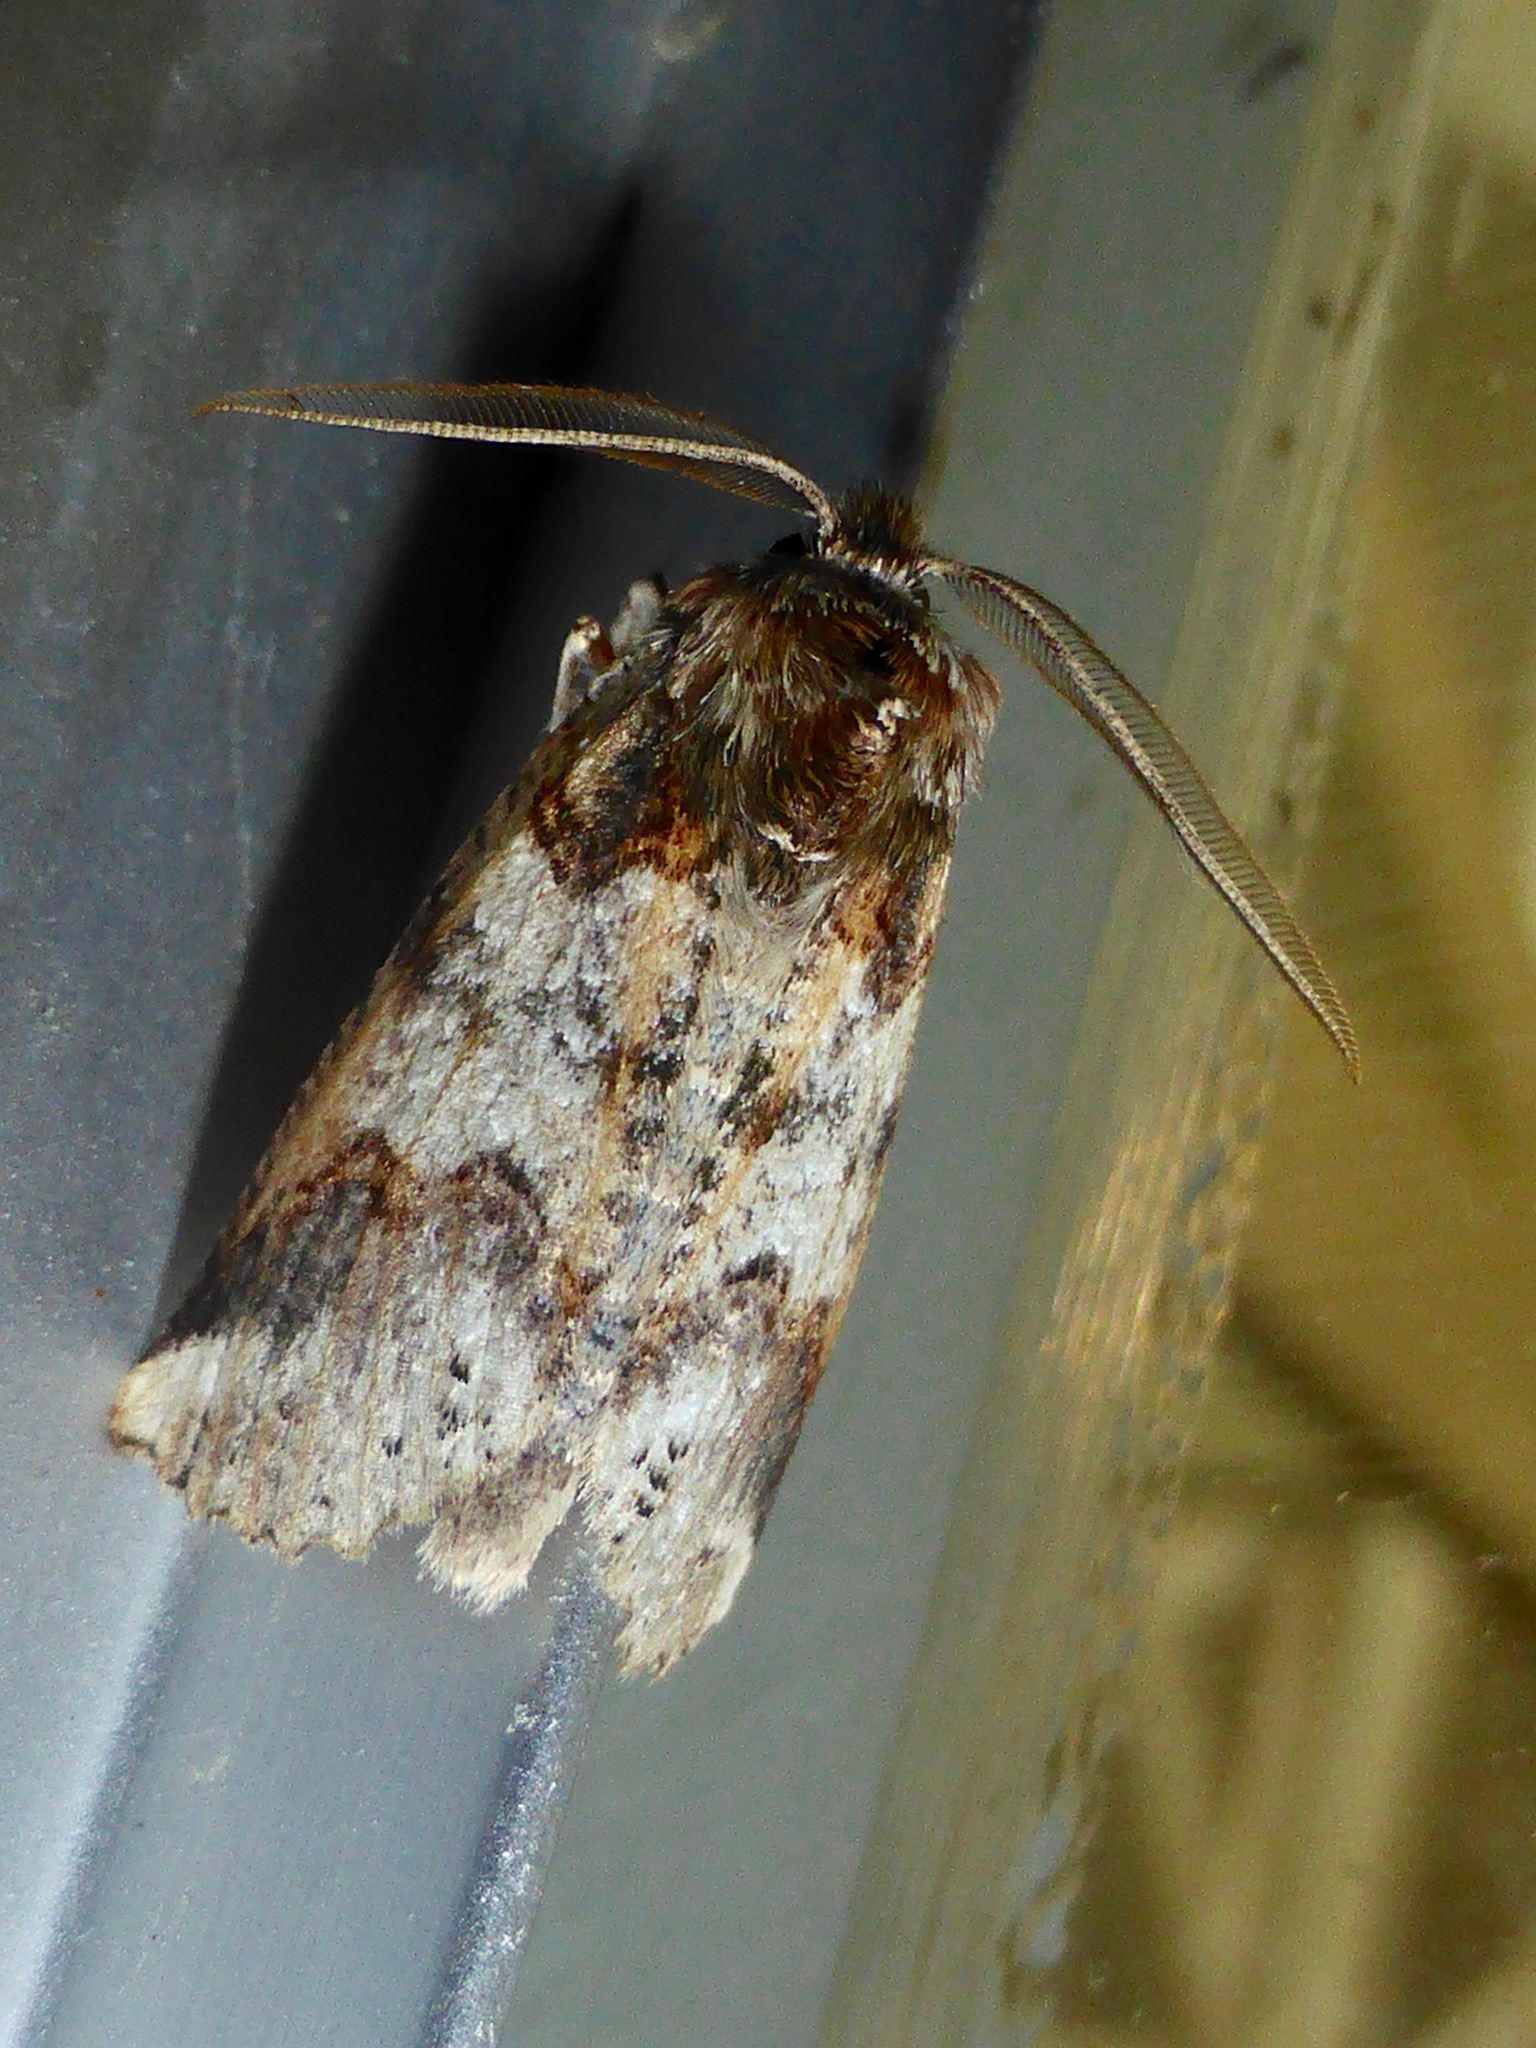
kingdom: Animalia
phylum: Arthropoda
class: Insecta
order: Lepidoptera
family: Geometridae
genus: Declana
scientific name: Declana
